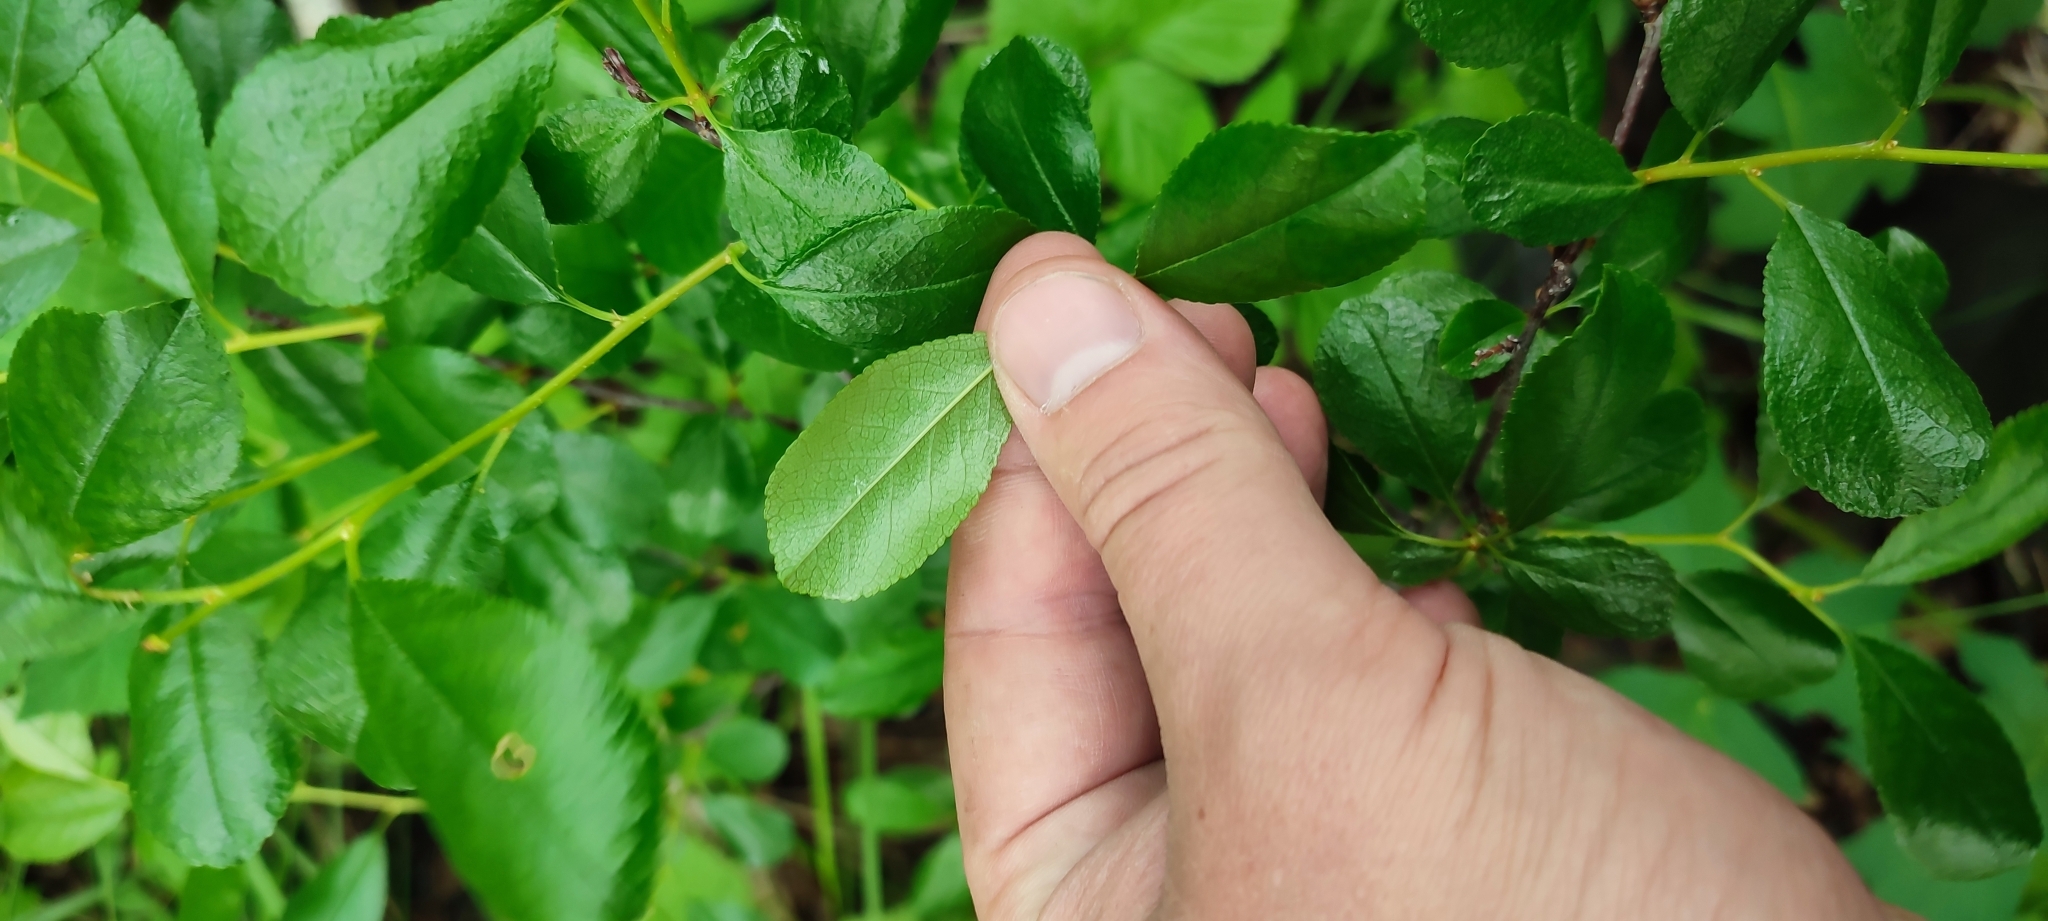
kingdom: Plantae
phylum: Tracheophyta
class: Magnoliopsida
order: Rosales
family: Rosaceae
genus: Prunus
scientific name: Prunus fruticosa
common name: European dwarf cherry
